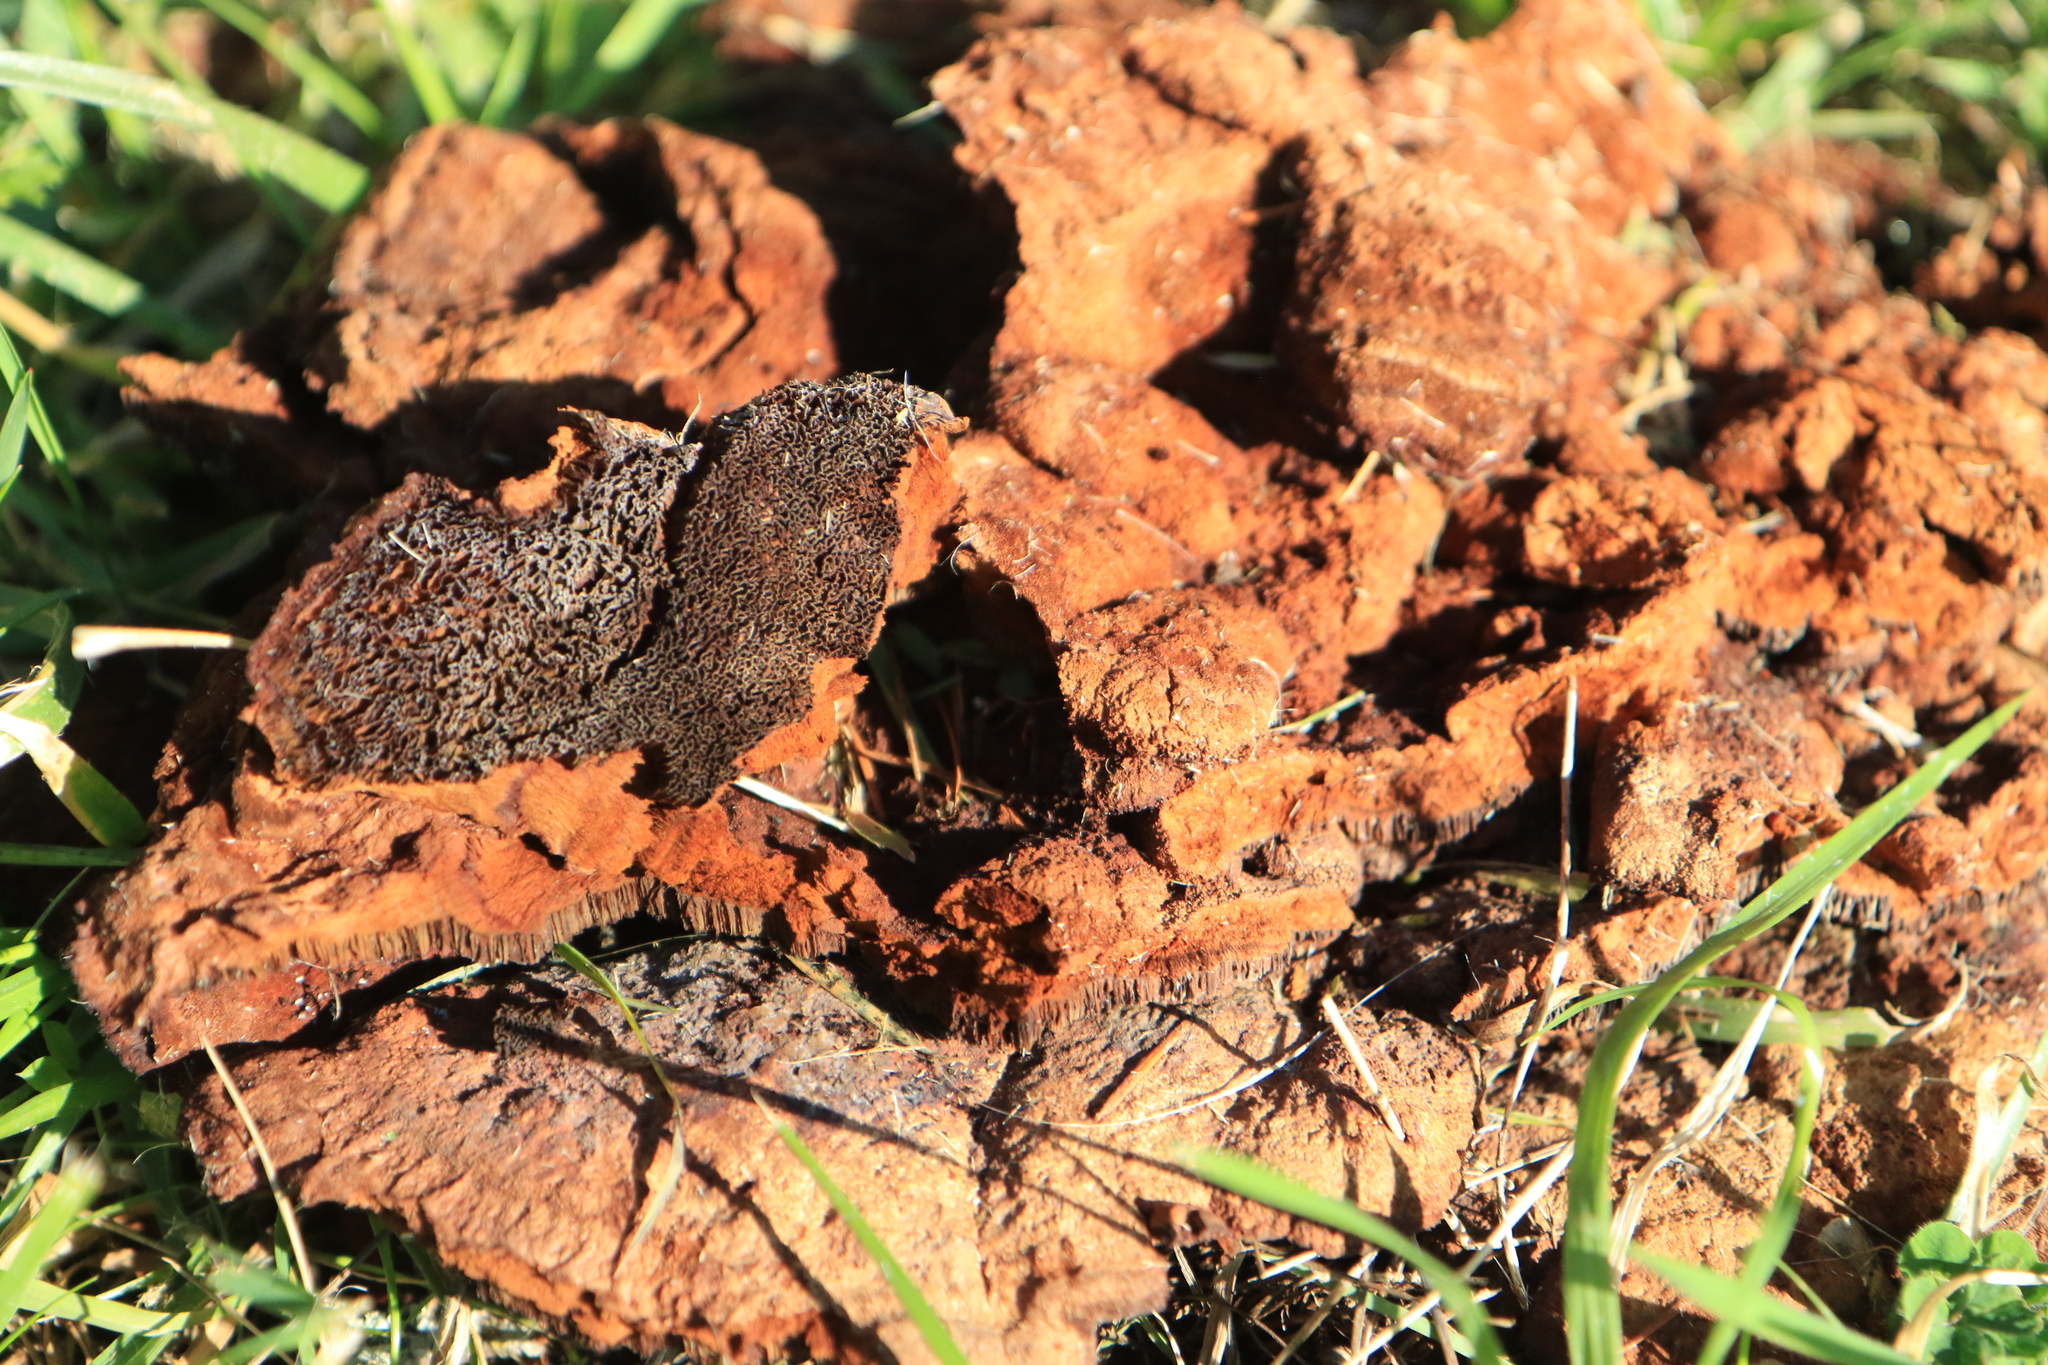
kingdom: Fungi
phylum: Basidiomycota
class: Agaricomycetes
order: Polyporales
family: Laetiporaceae
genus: Phaeolus
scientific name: Phaeolus schweinitzii
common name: Dyer's mazegill
